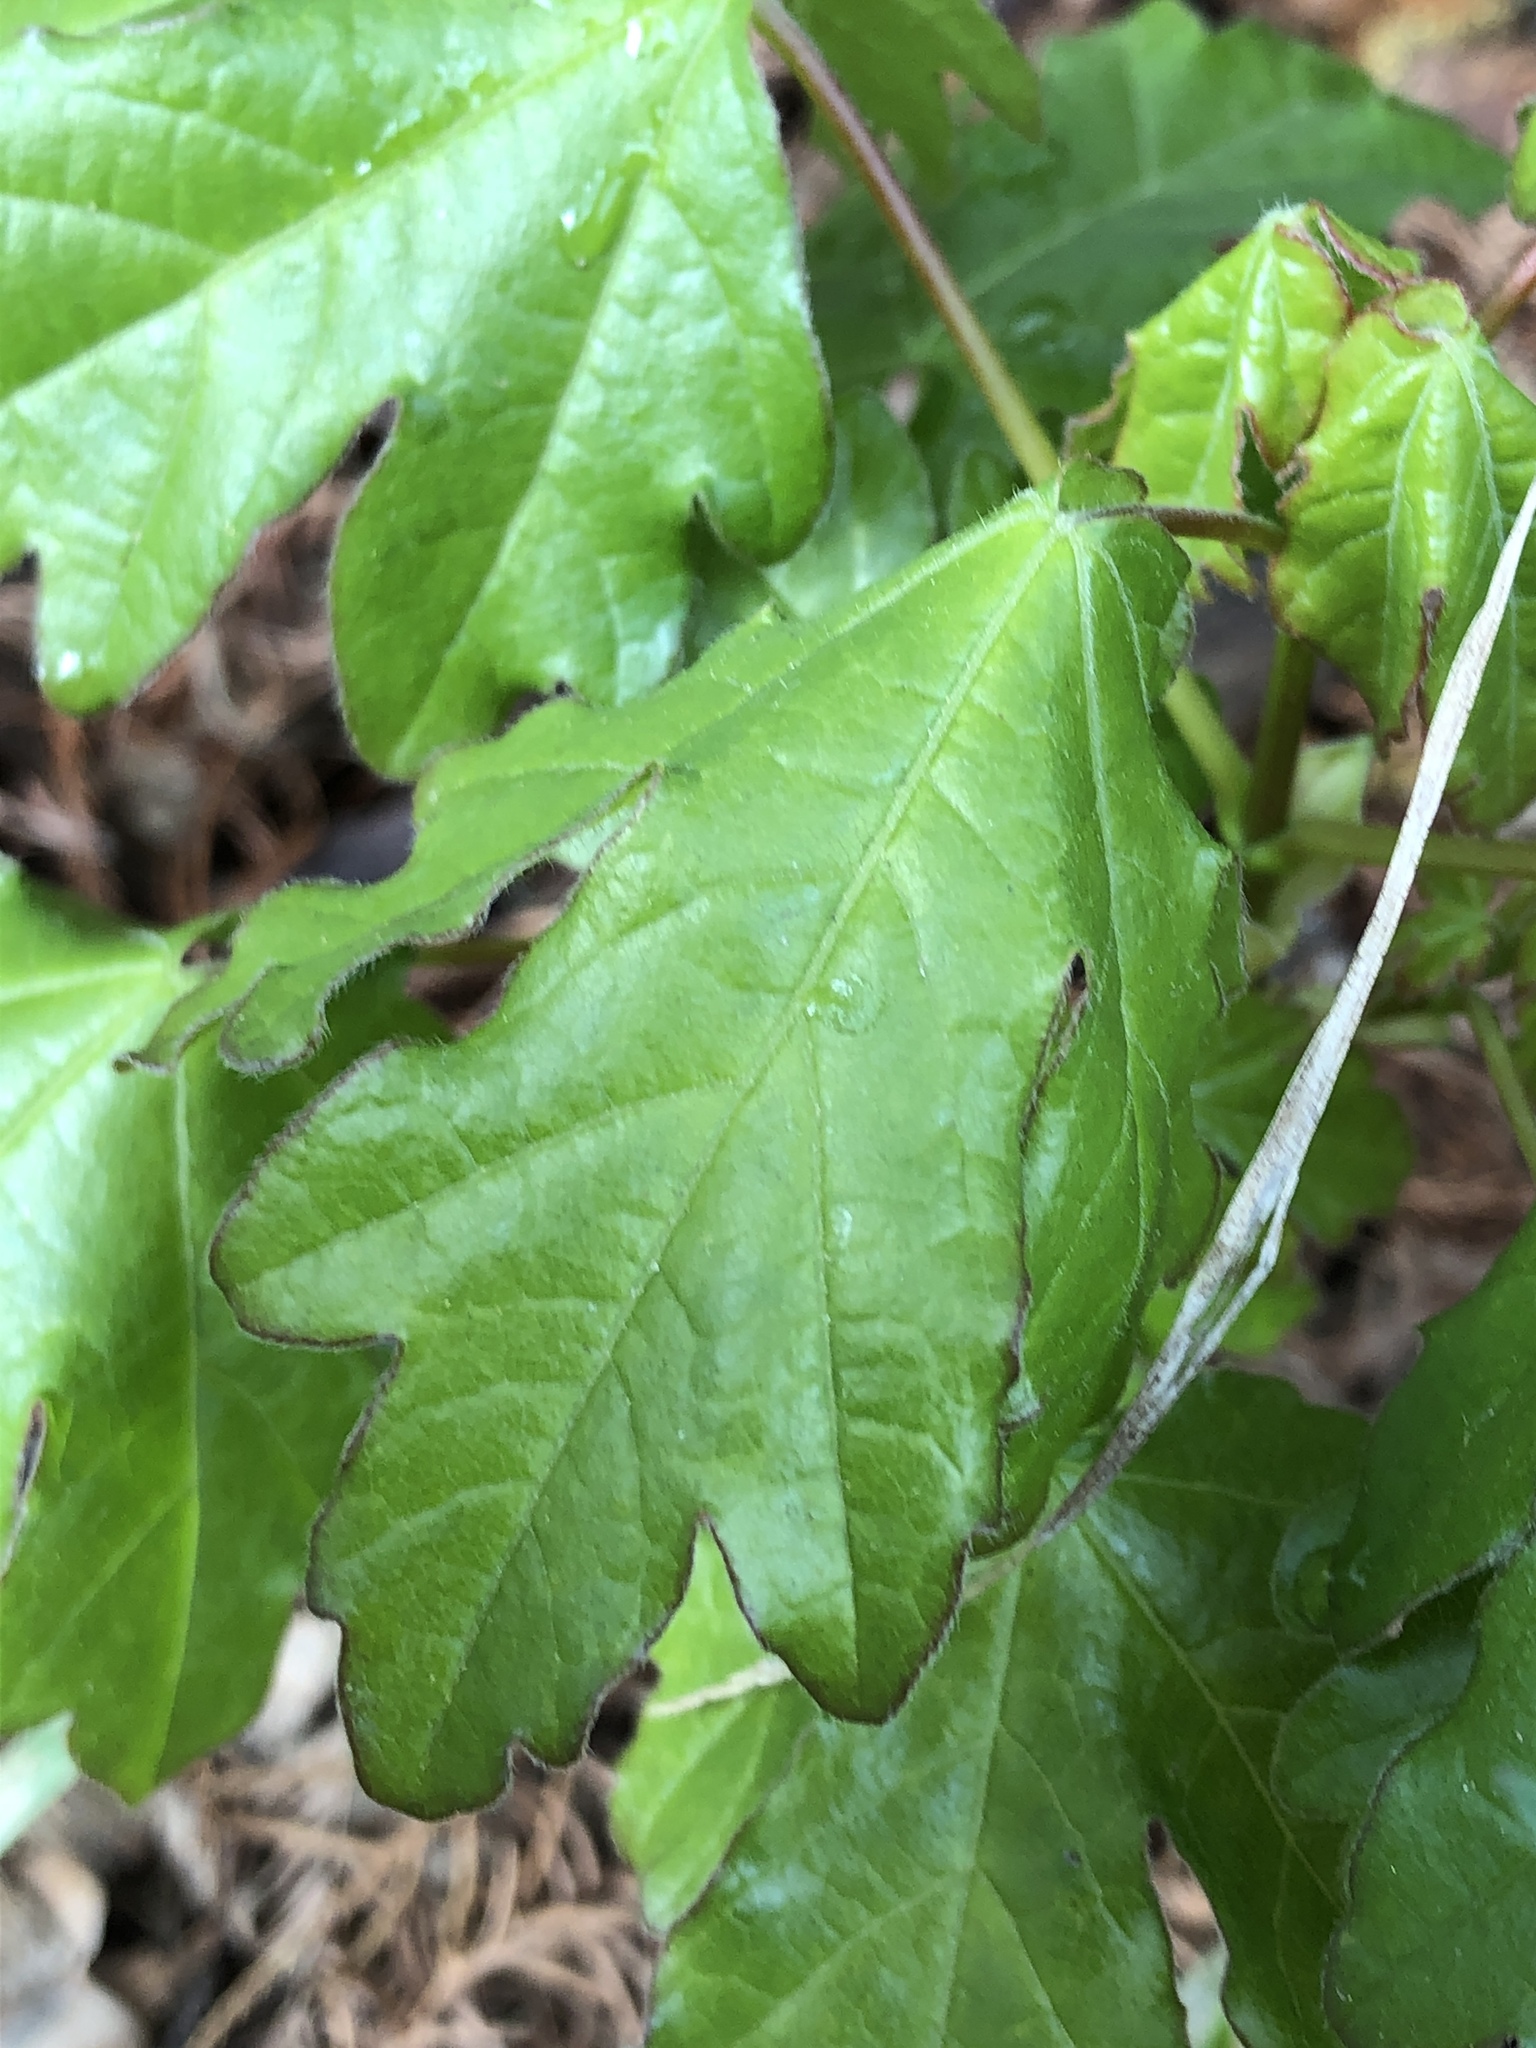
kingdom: Plantae
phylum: Tracheophyta
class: Magnoliopsida
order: Sapindales
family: Sapindaceae
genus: Acer
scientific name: Acer campestre
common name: Field maple
